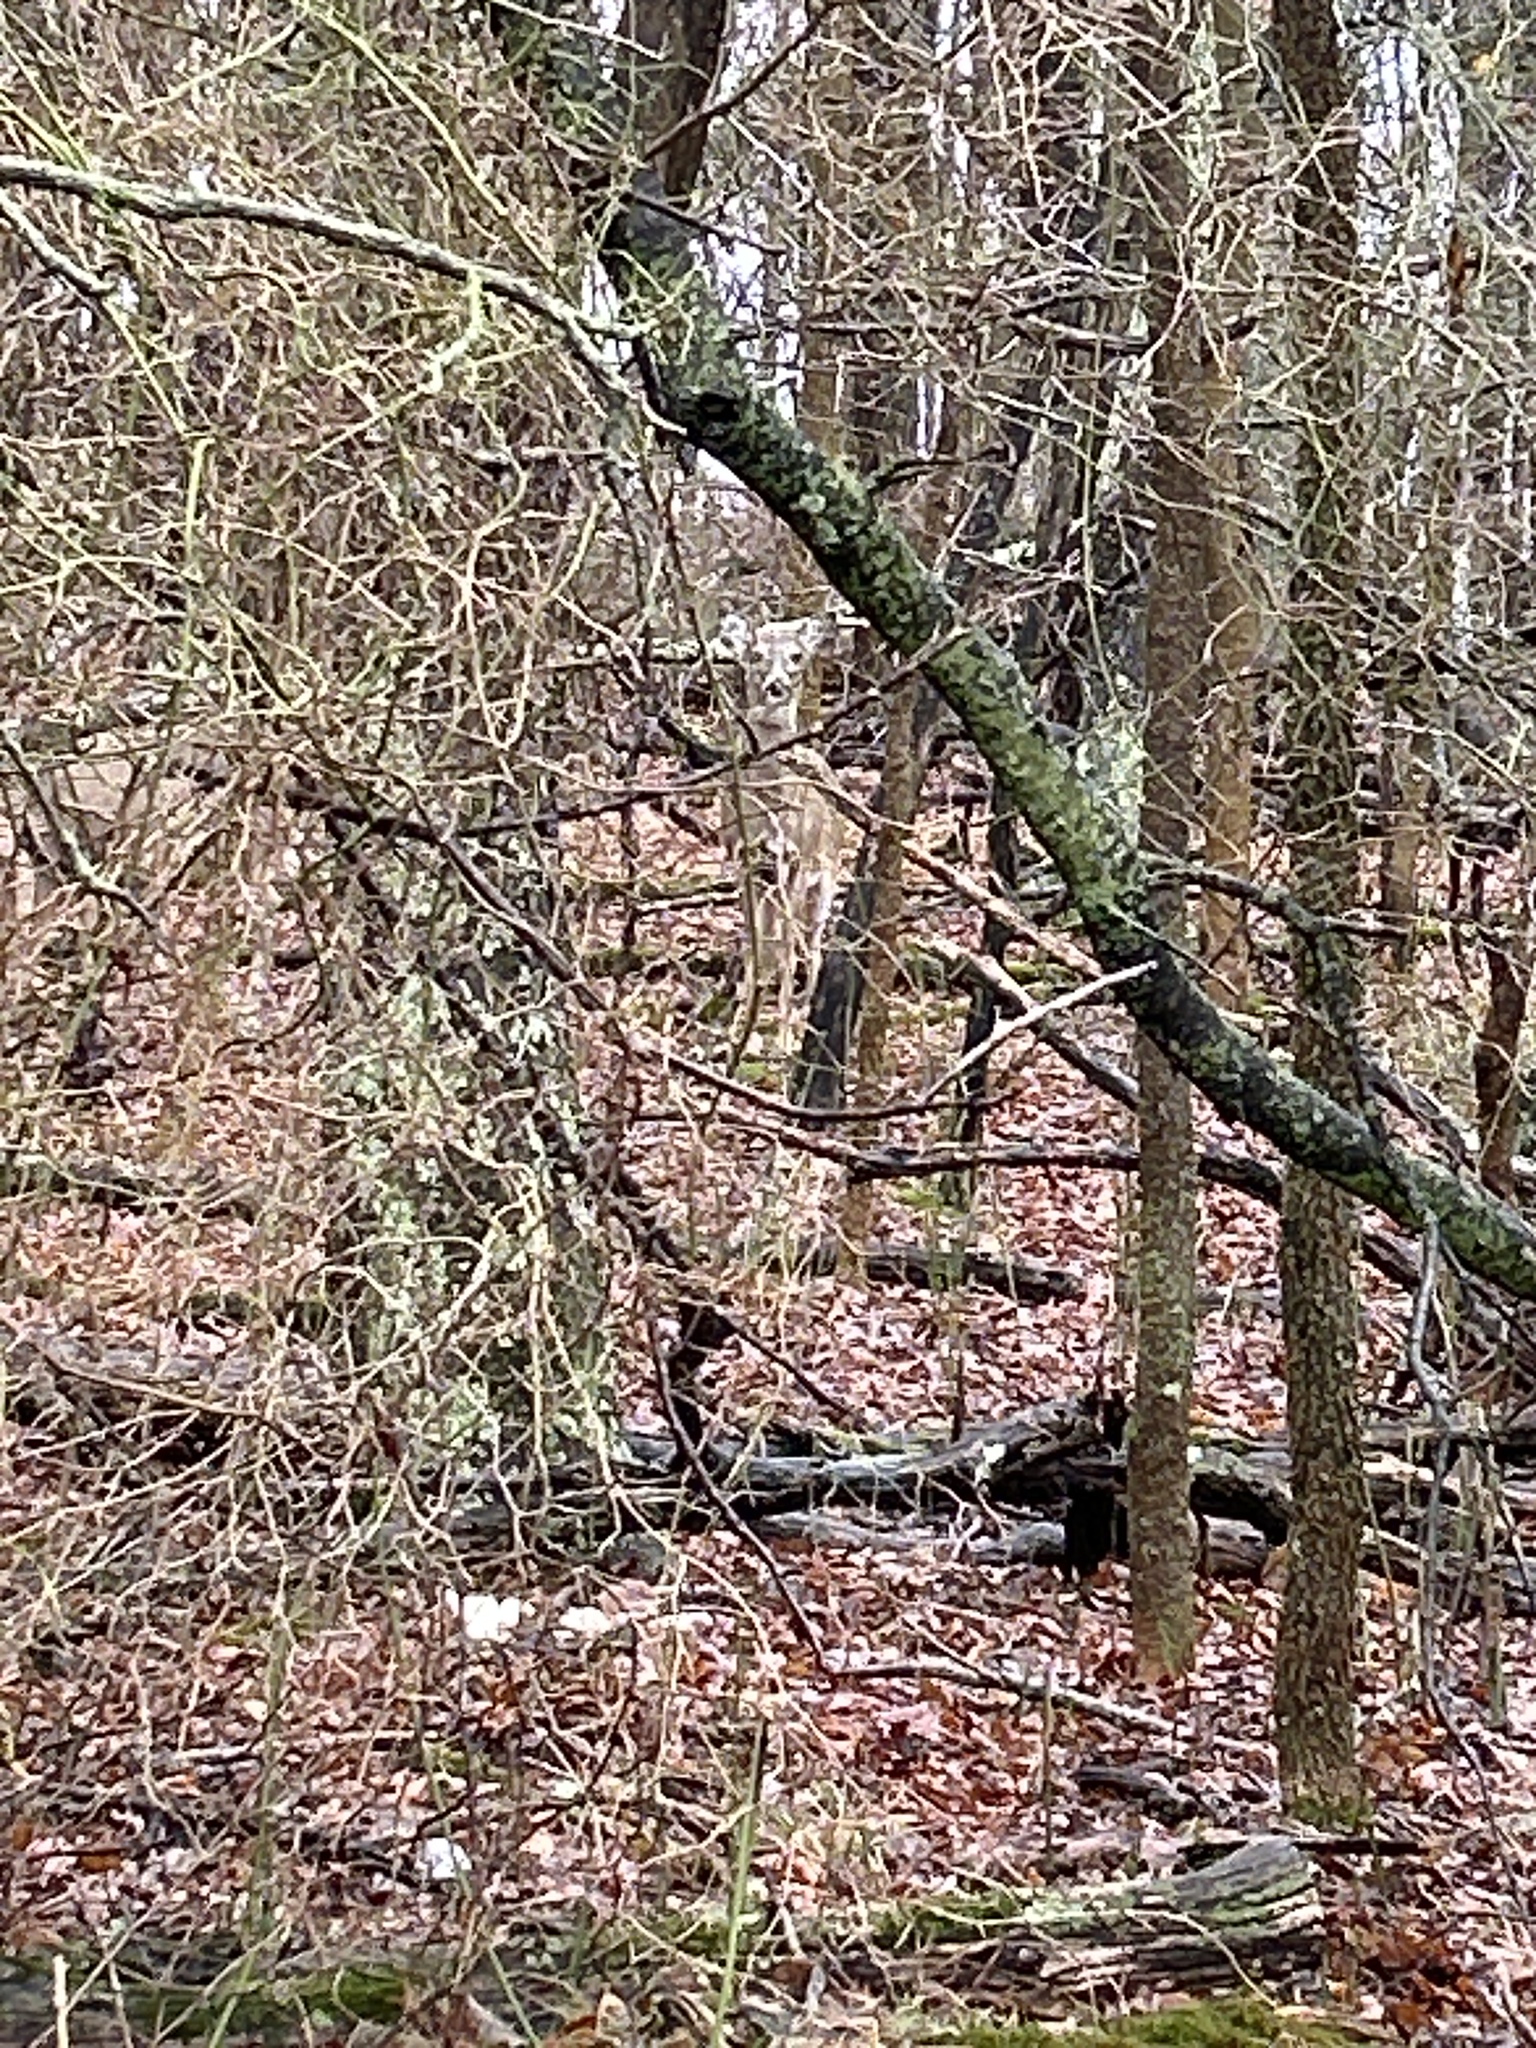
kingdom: Animalia
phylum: Chordata
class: Mammalia
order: Artiodactyla
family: Cervidae
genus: Odocoileus
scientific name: Odocoileus virginianus
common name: White-tailed deer
